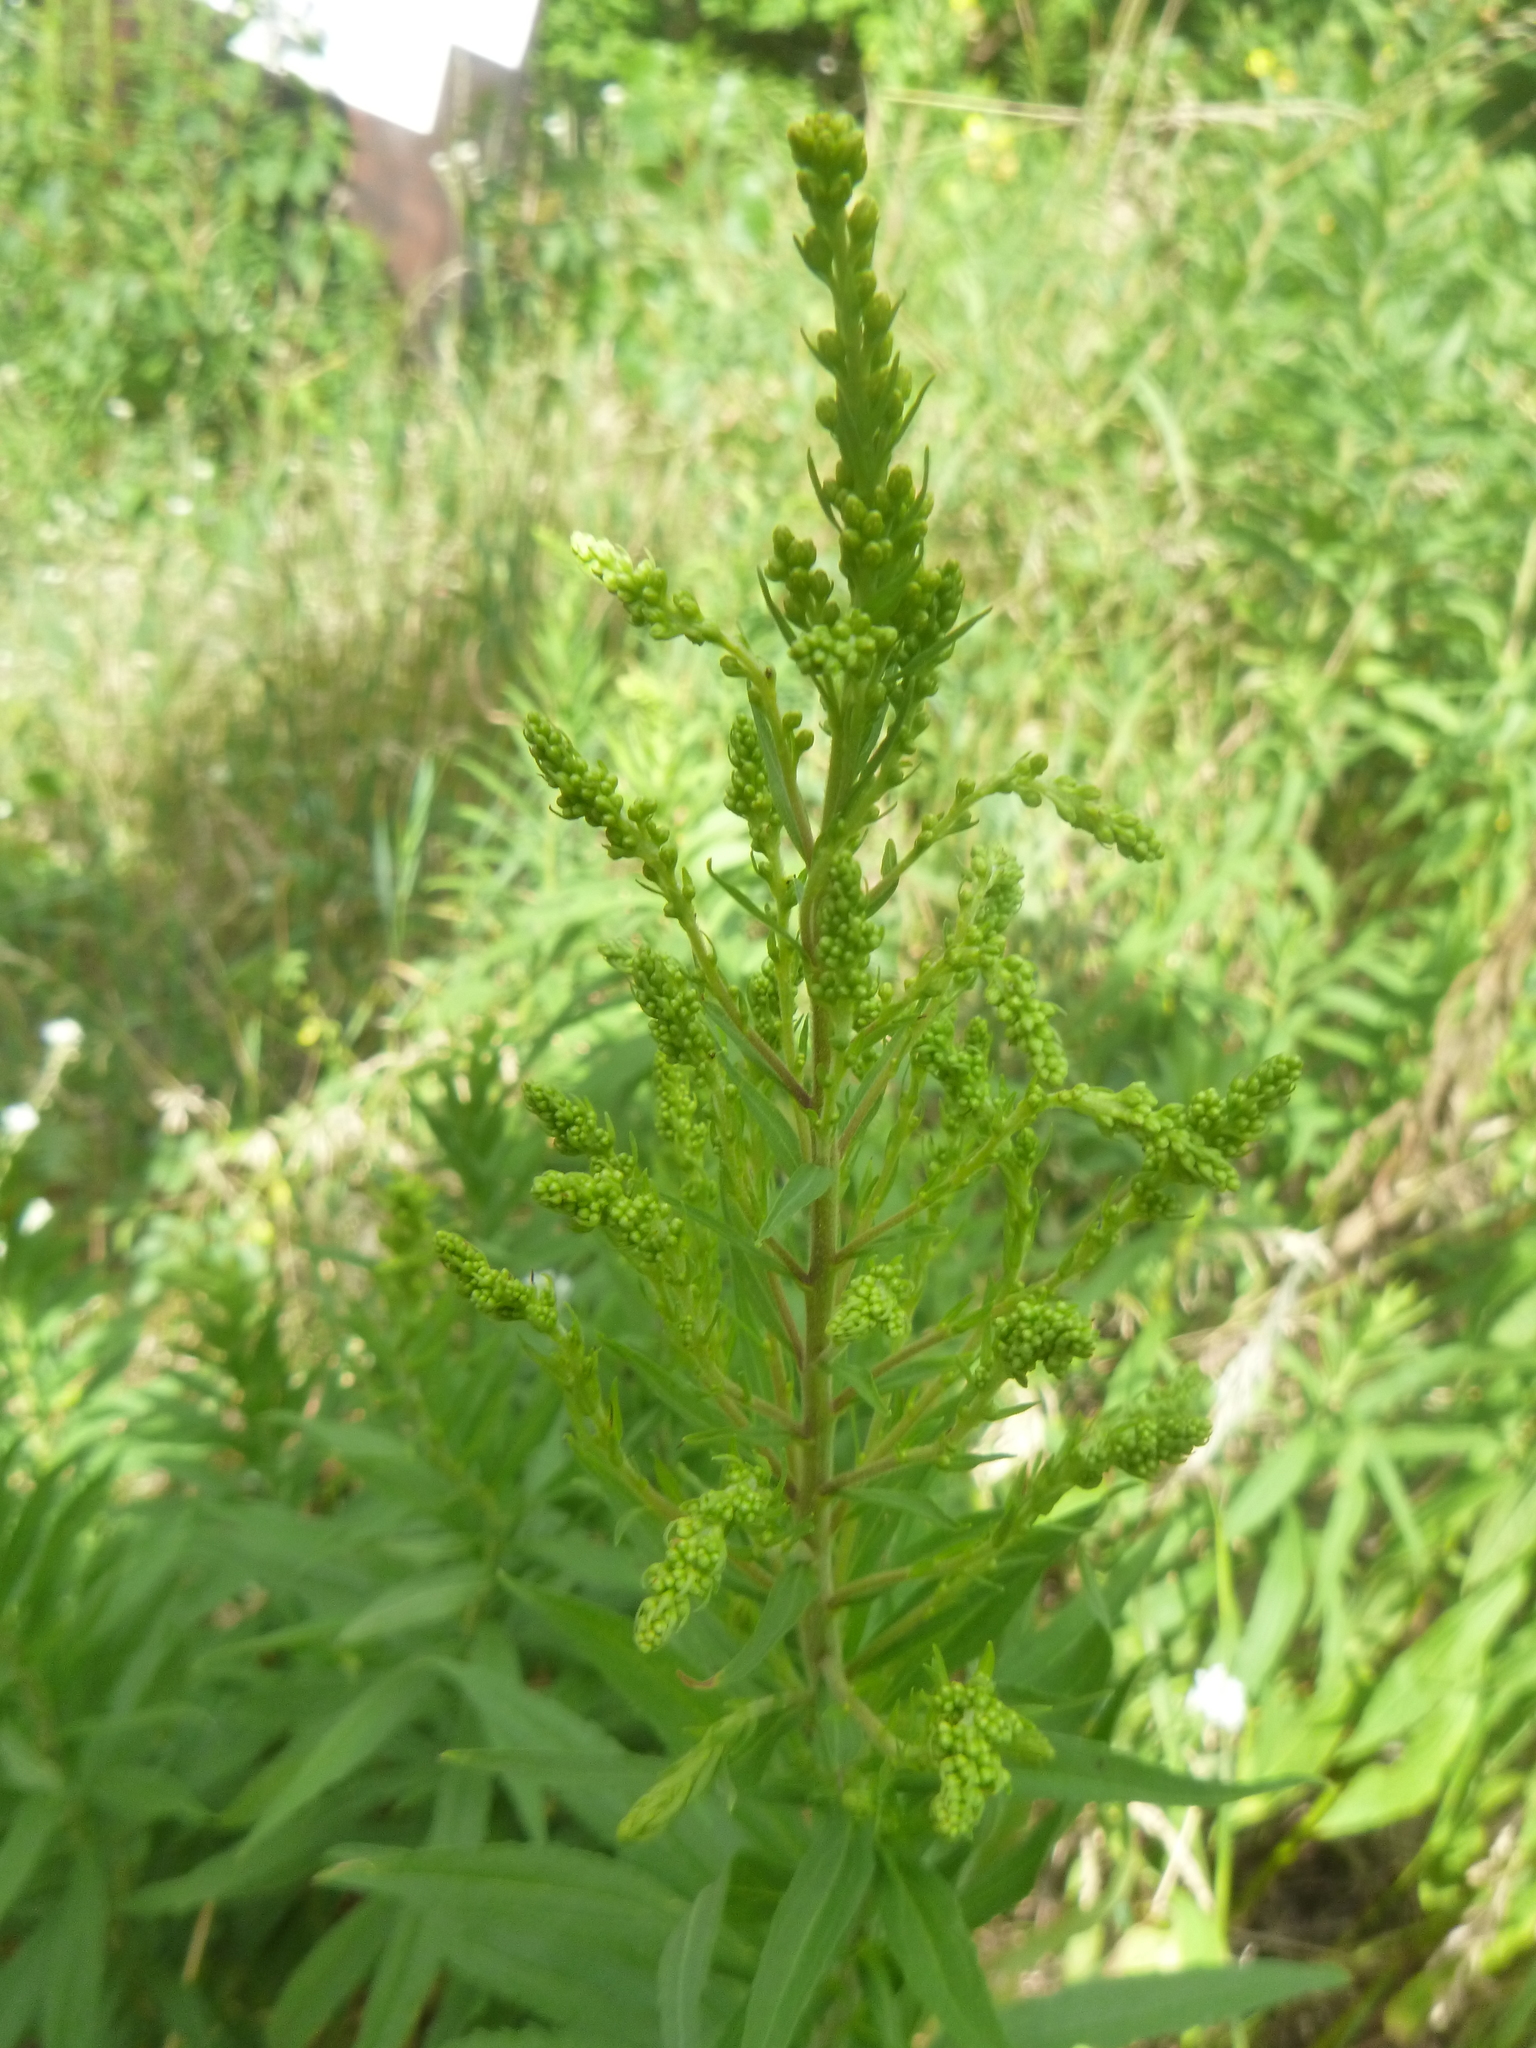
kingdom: Plantae
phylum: Tracheophyta
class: Magnoliopsida
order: Asterales
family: Asteraceae
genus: Solidago
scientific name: Solidago canadensis
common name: Canada goldenrod
